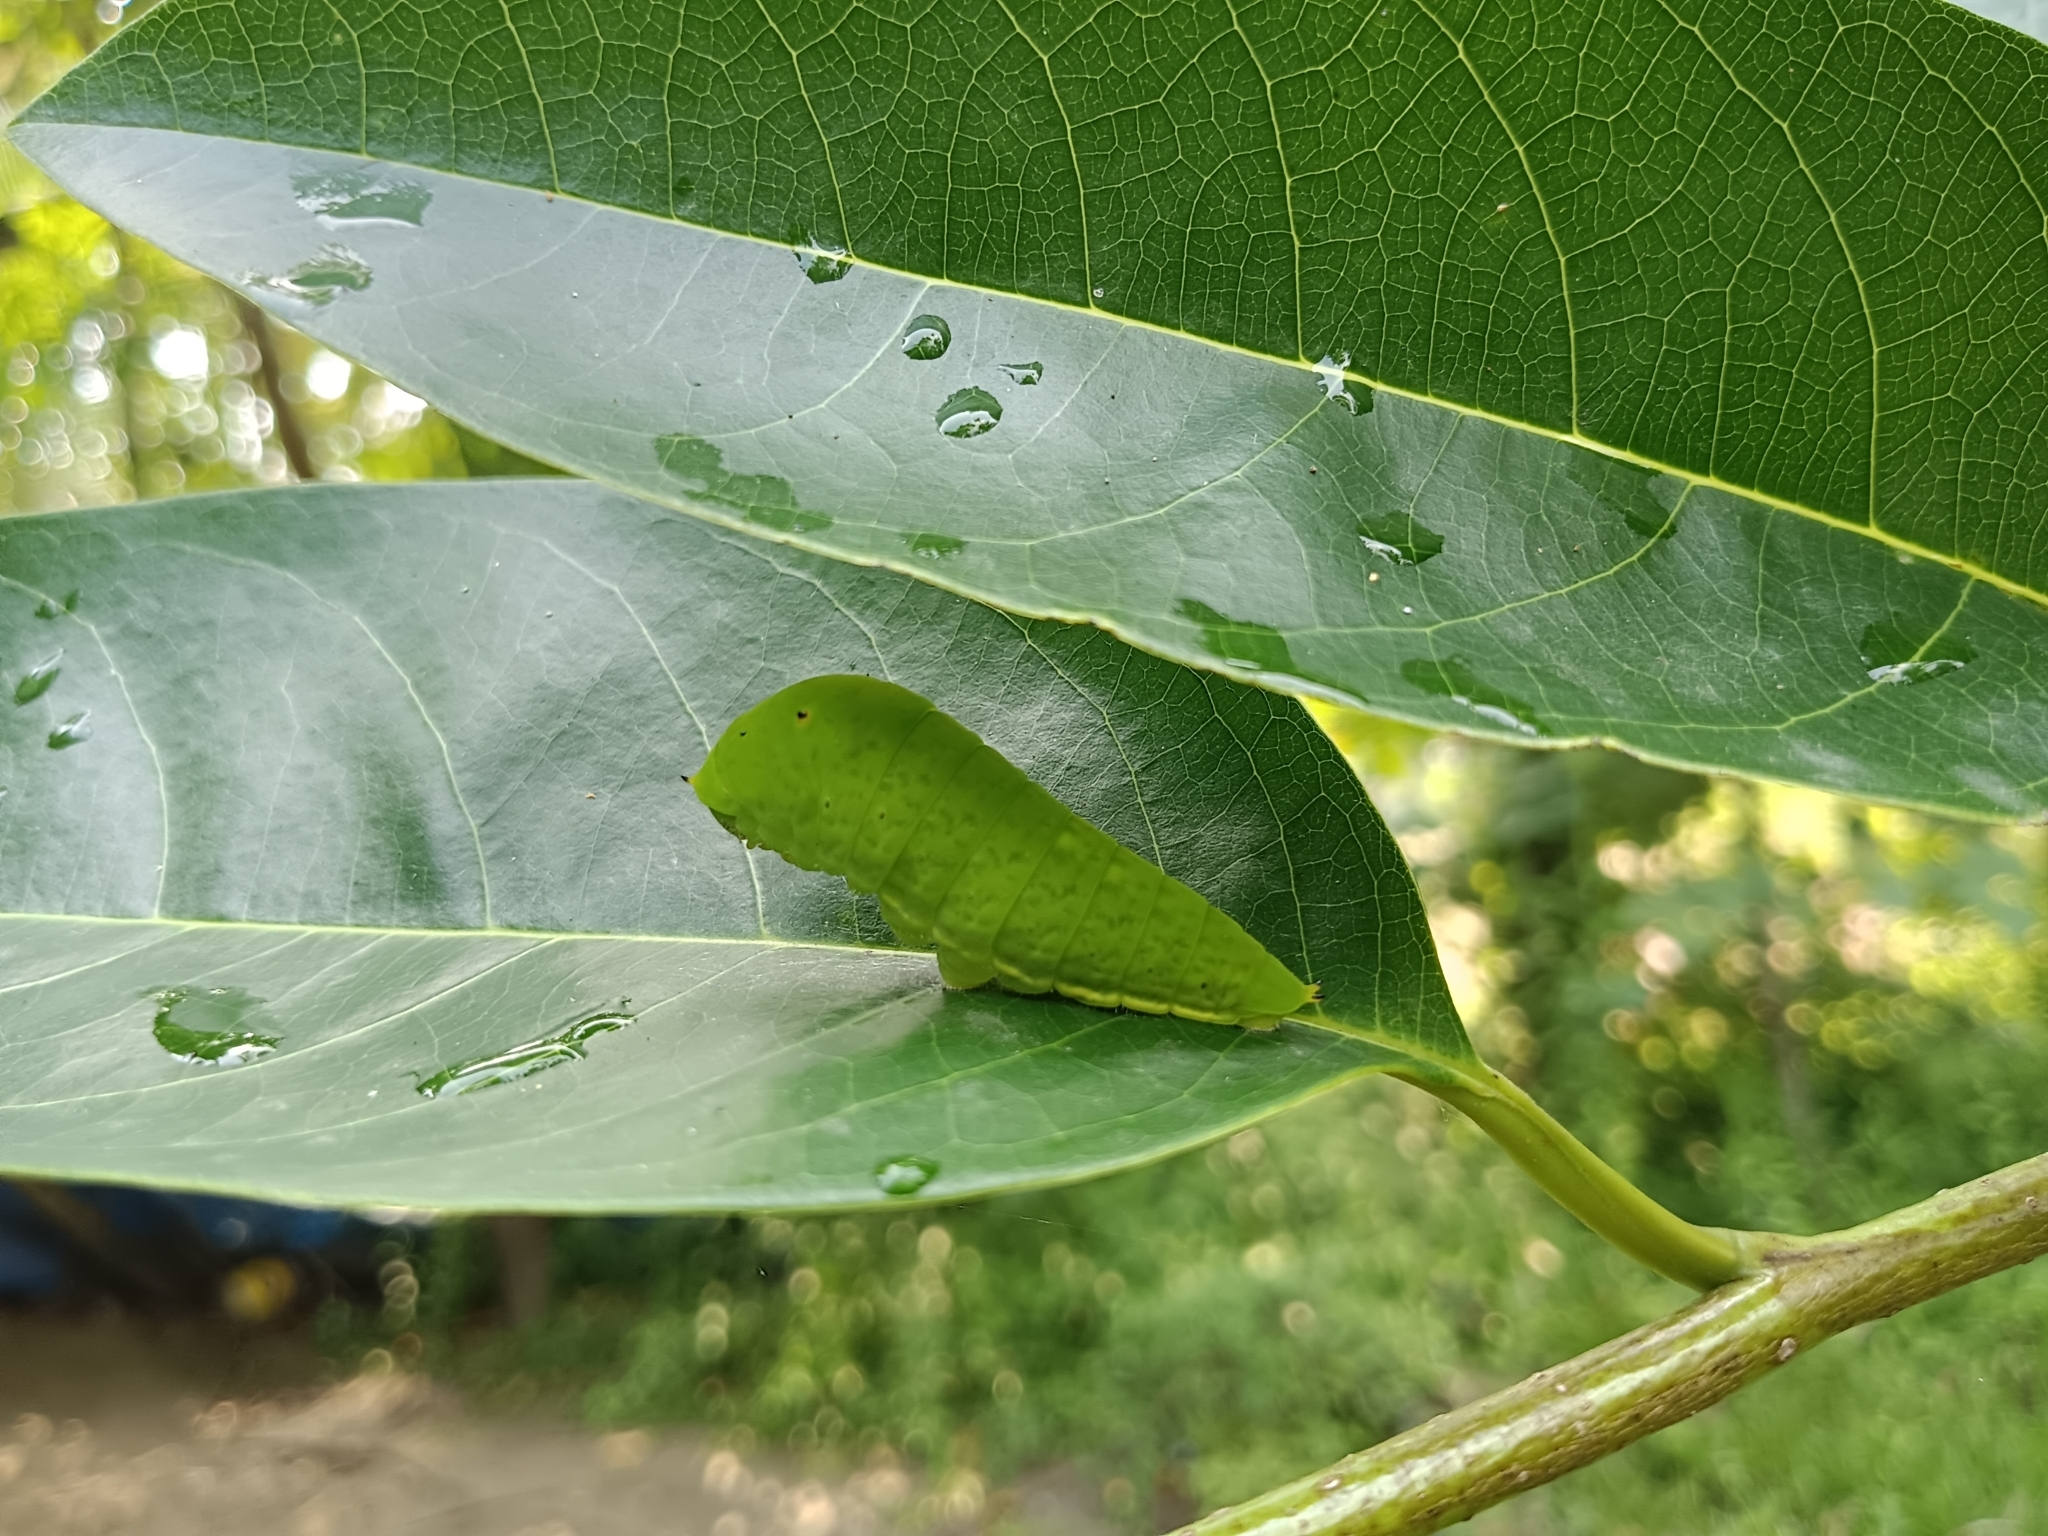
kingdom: Animalia
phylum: Arthropoda
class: Insecta
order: Lepidoptera
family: Papilionidae
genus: Graphium
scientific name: Graphium
